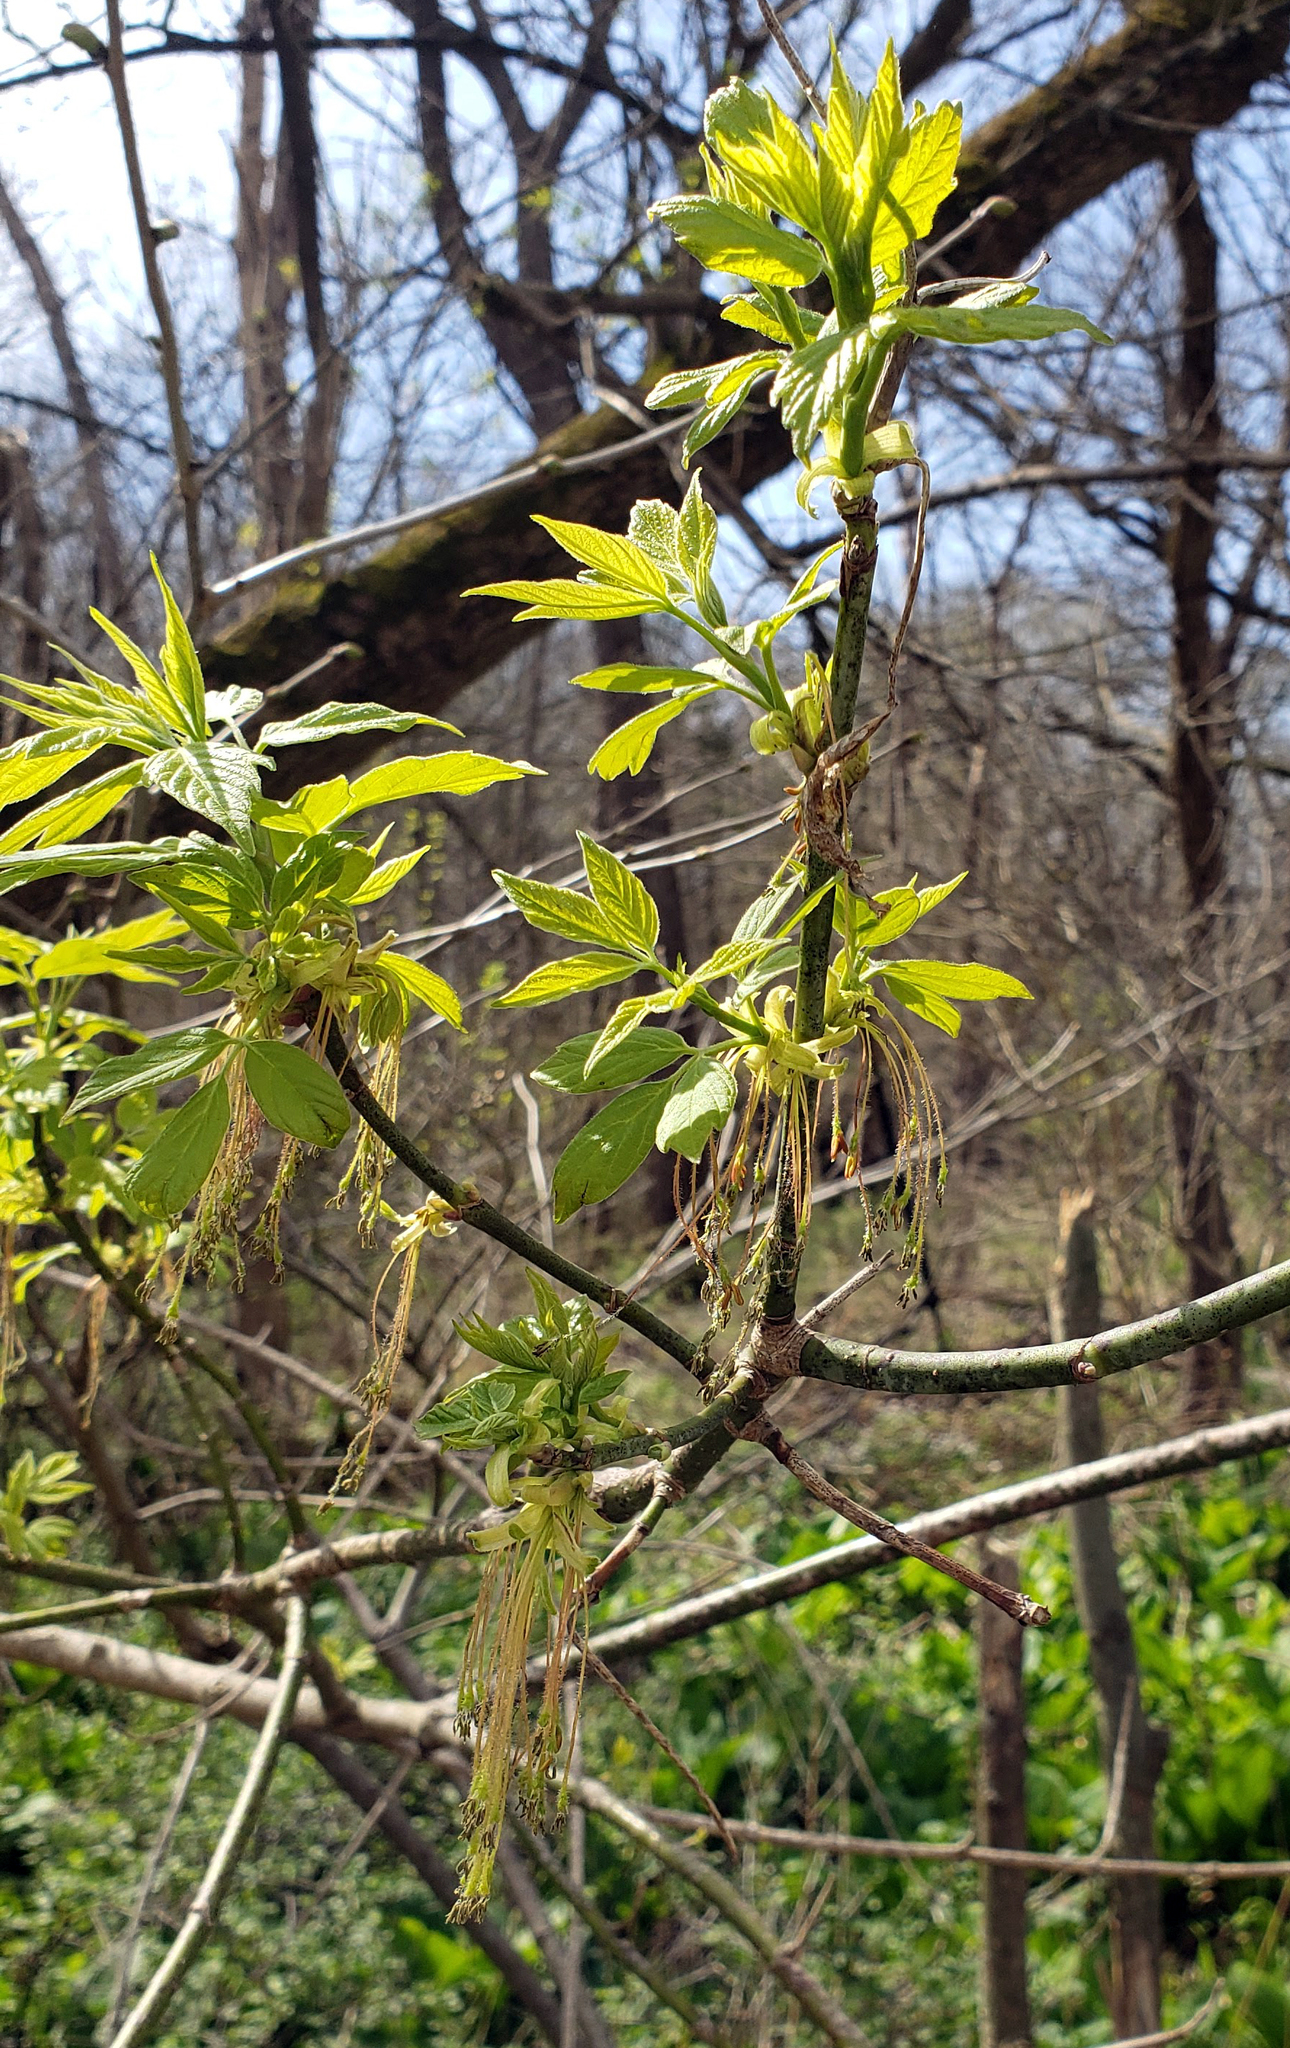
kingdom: Plantae
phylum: Tracheophyta
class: Magnoliopsida
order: Sapindales
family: Sapindaceae
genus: Acer
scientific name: Acer negundo
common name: Ashleaf maple
